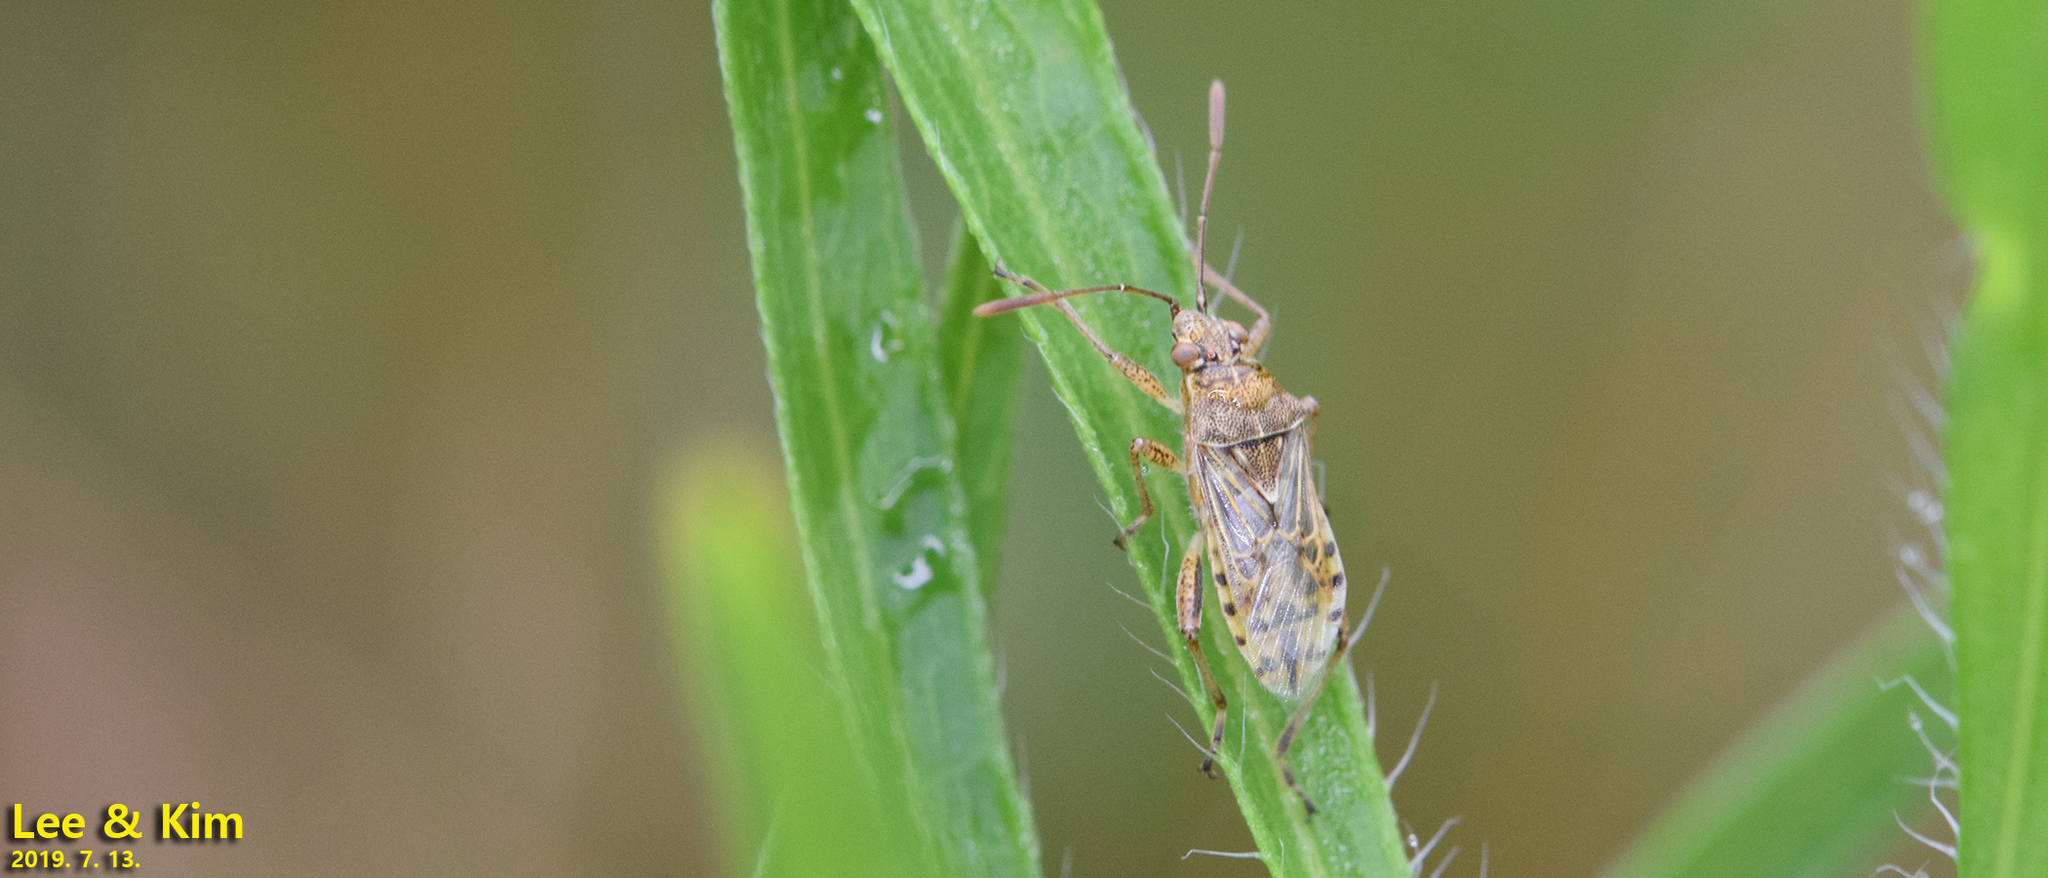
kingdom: Animalia
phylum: Arthropoda
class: Insecta
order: Hemiptera
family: Rhopalidae
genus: Stictopleurus
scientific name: Stictopleurus minutus
